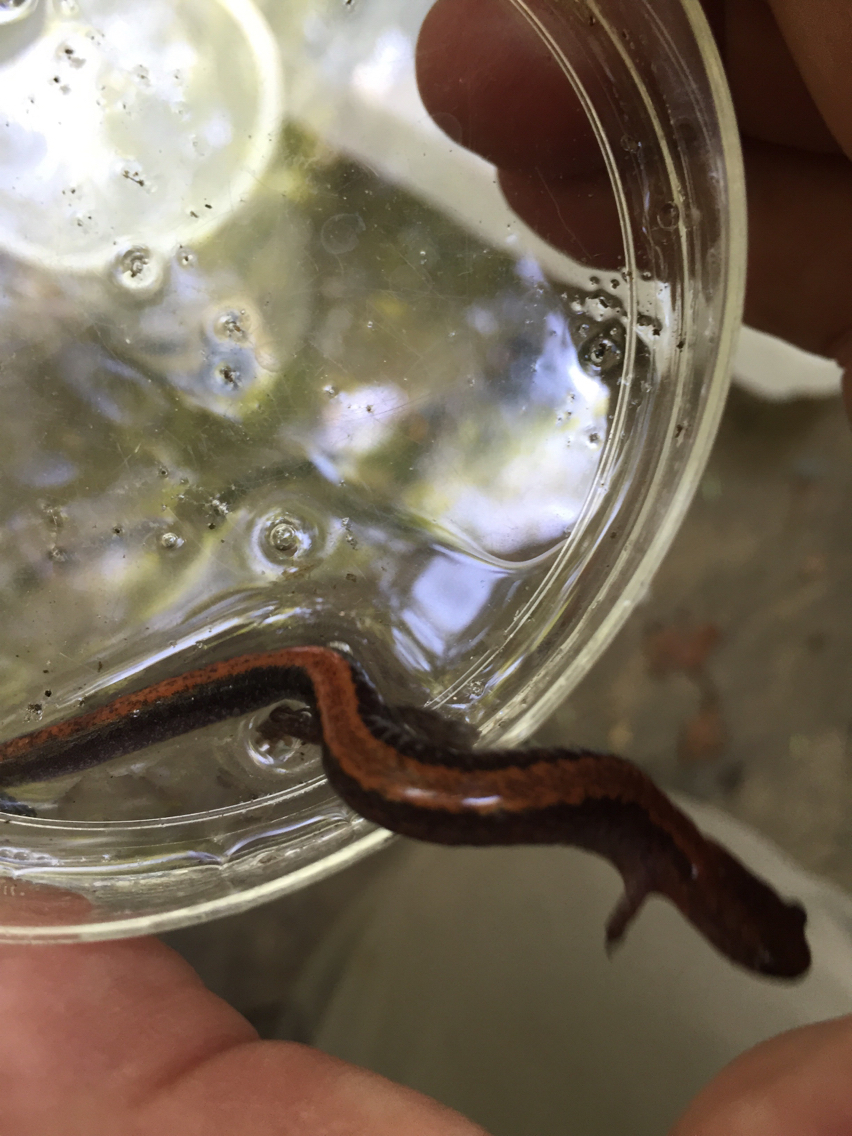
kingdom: Animalia
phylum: Chordata
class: Amphibia
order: Caudata
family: Plethodontidae
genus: Plethodon
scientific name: Plethodon cinereus
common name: Redback salamander
